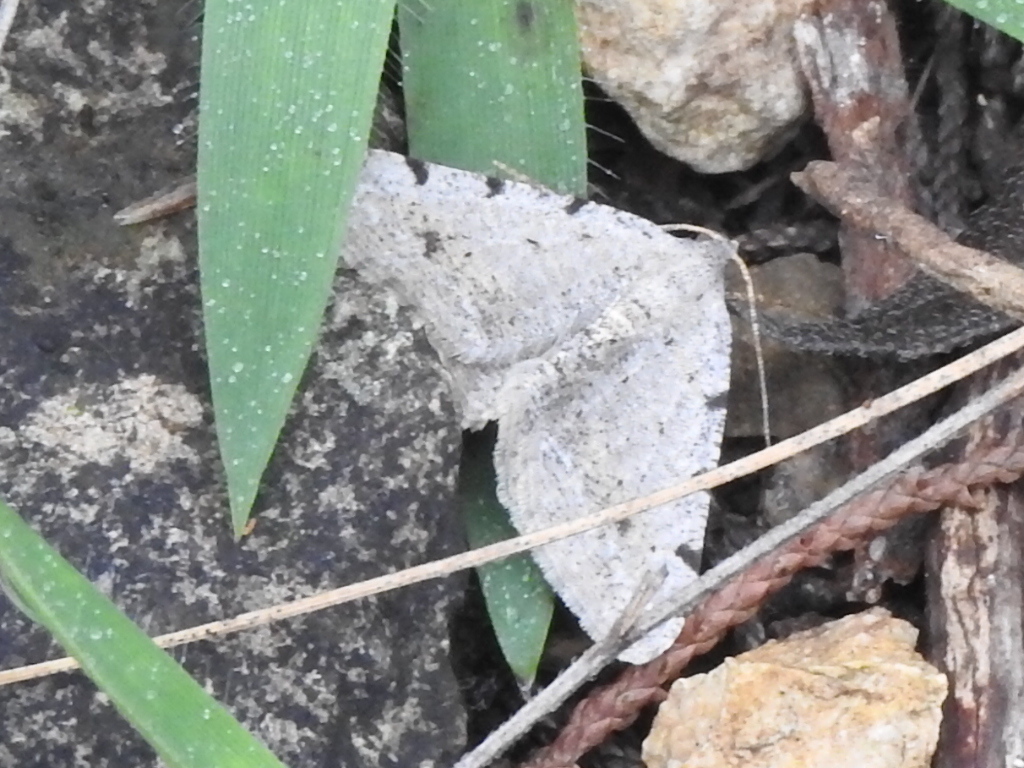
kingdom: Animalia
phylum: Arthropoda
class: Insecta
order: Lepidoptera
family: Geometridae
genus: Digrammia
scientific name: Digrammia pallidata
